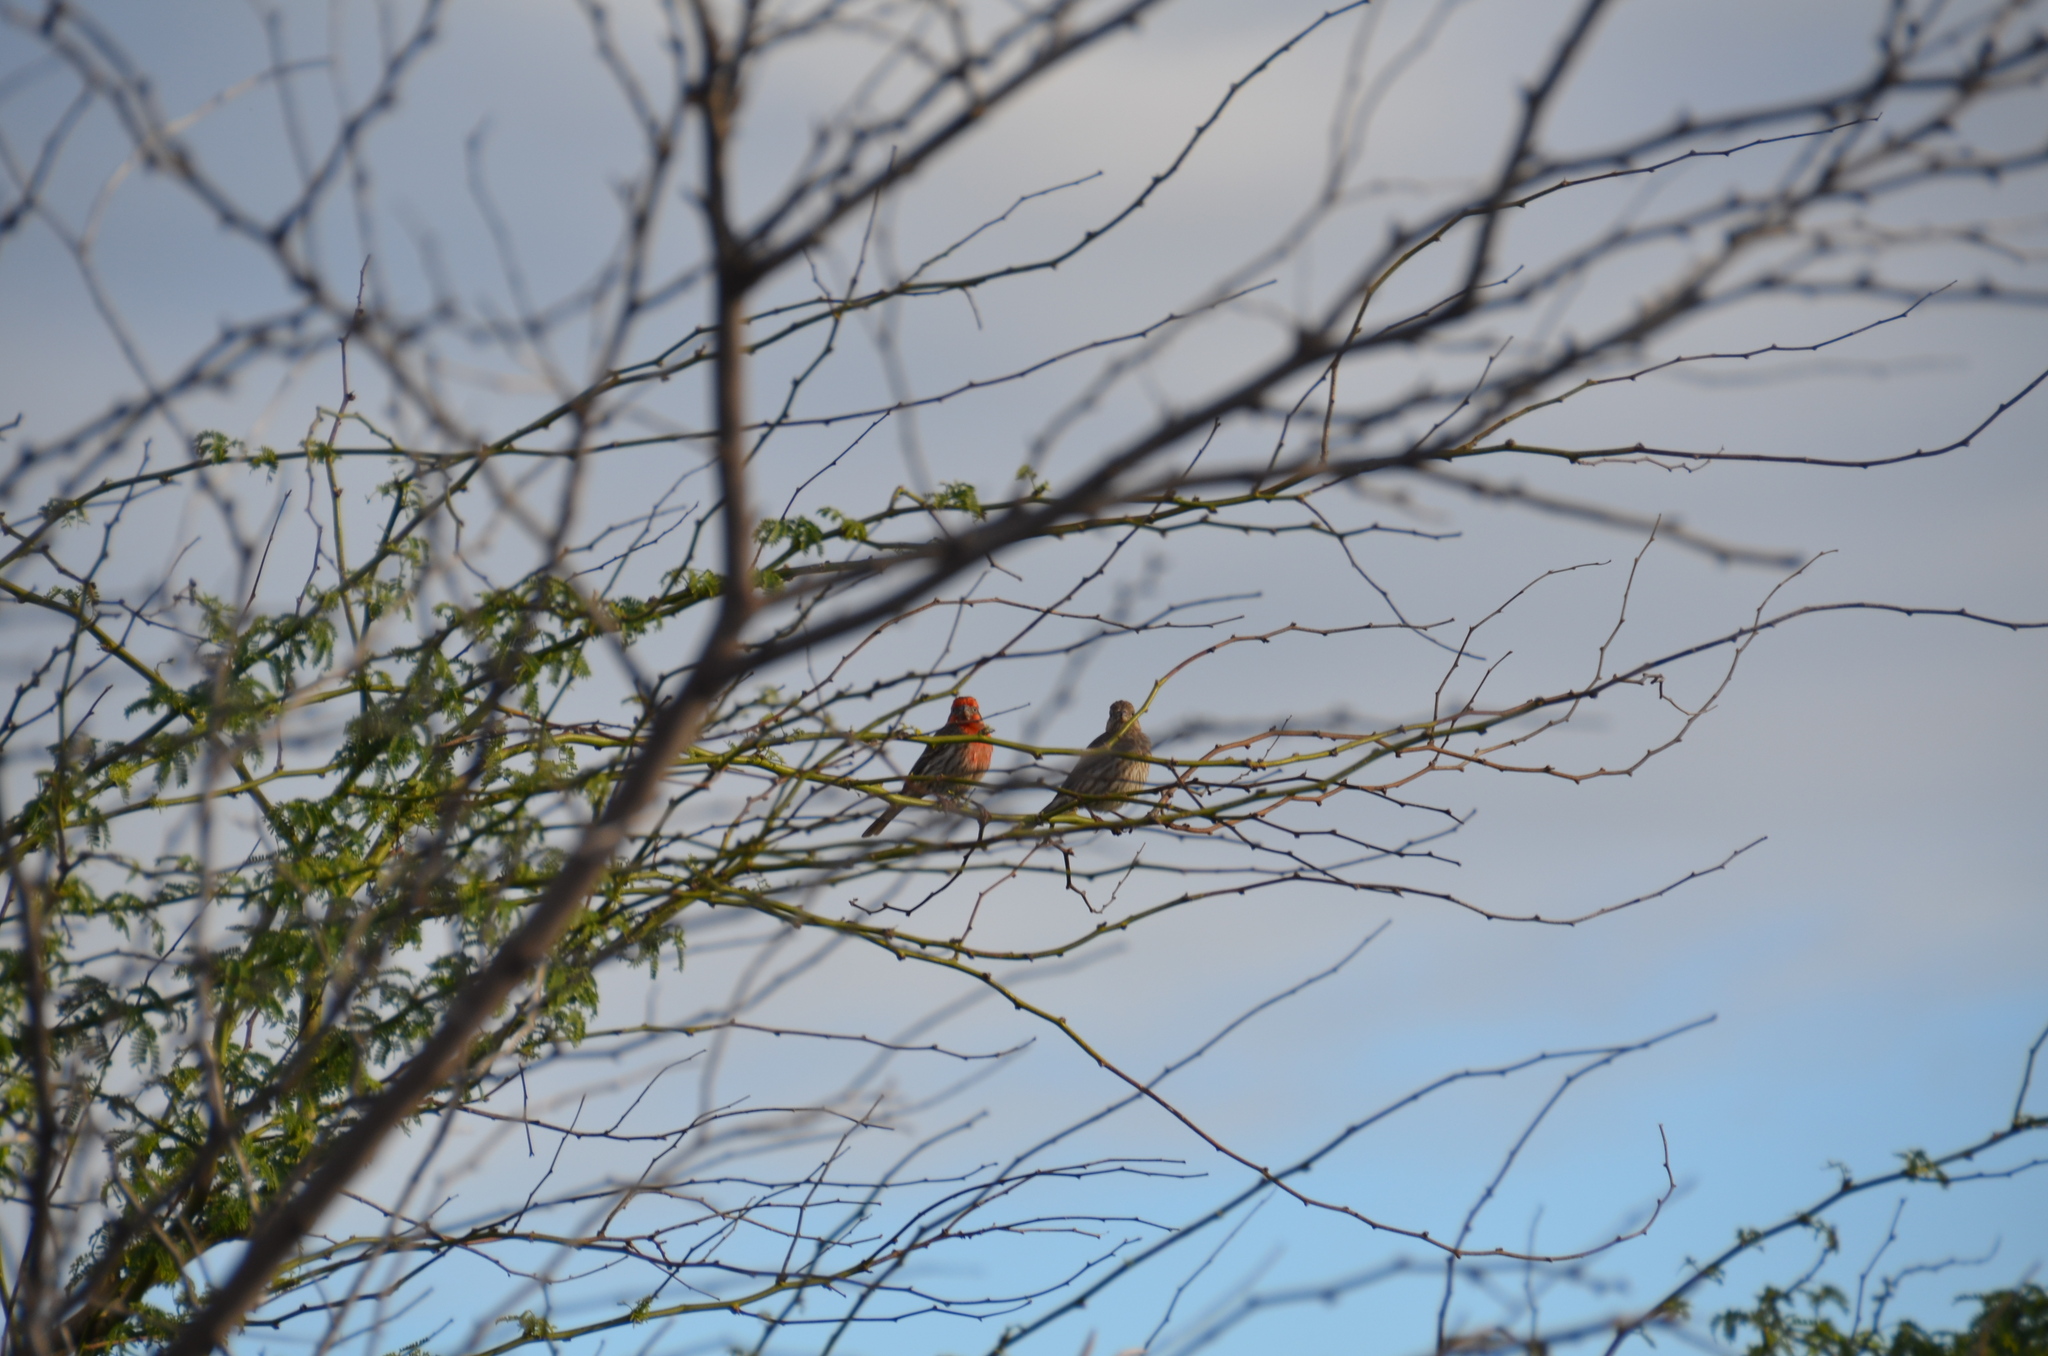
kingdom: Animalia
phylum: Chordata
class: Aves
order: Passeriformes
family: Fringillidae
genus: Haemorhous
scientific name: Haemorhous mexicanus
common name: House finch
